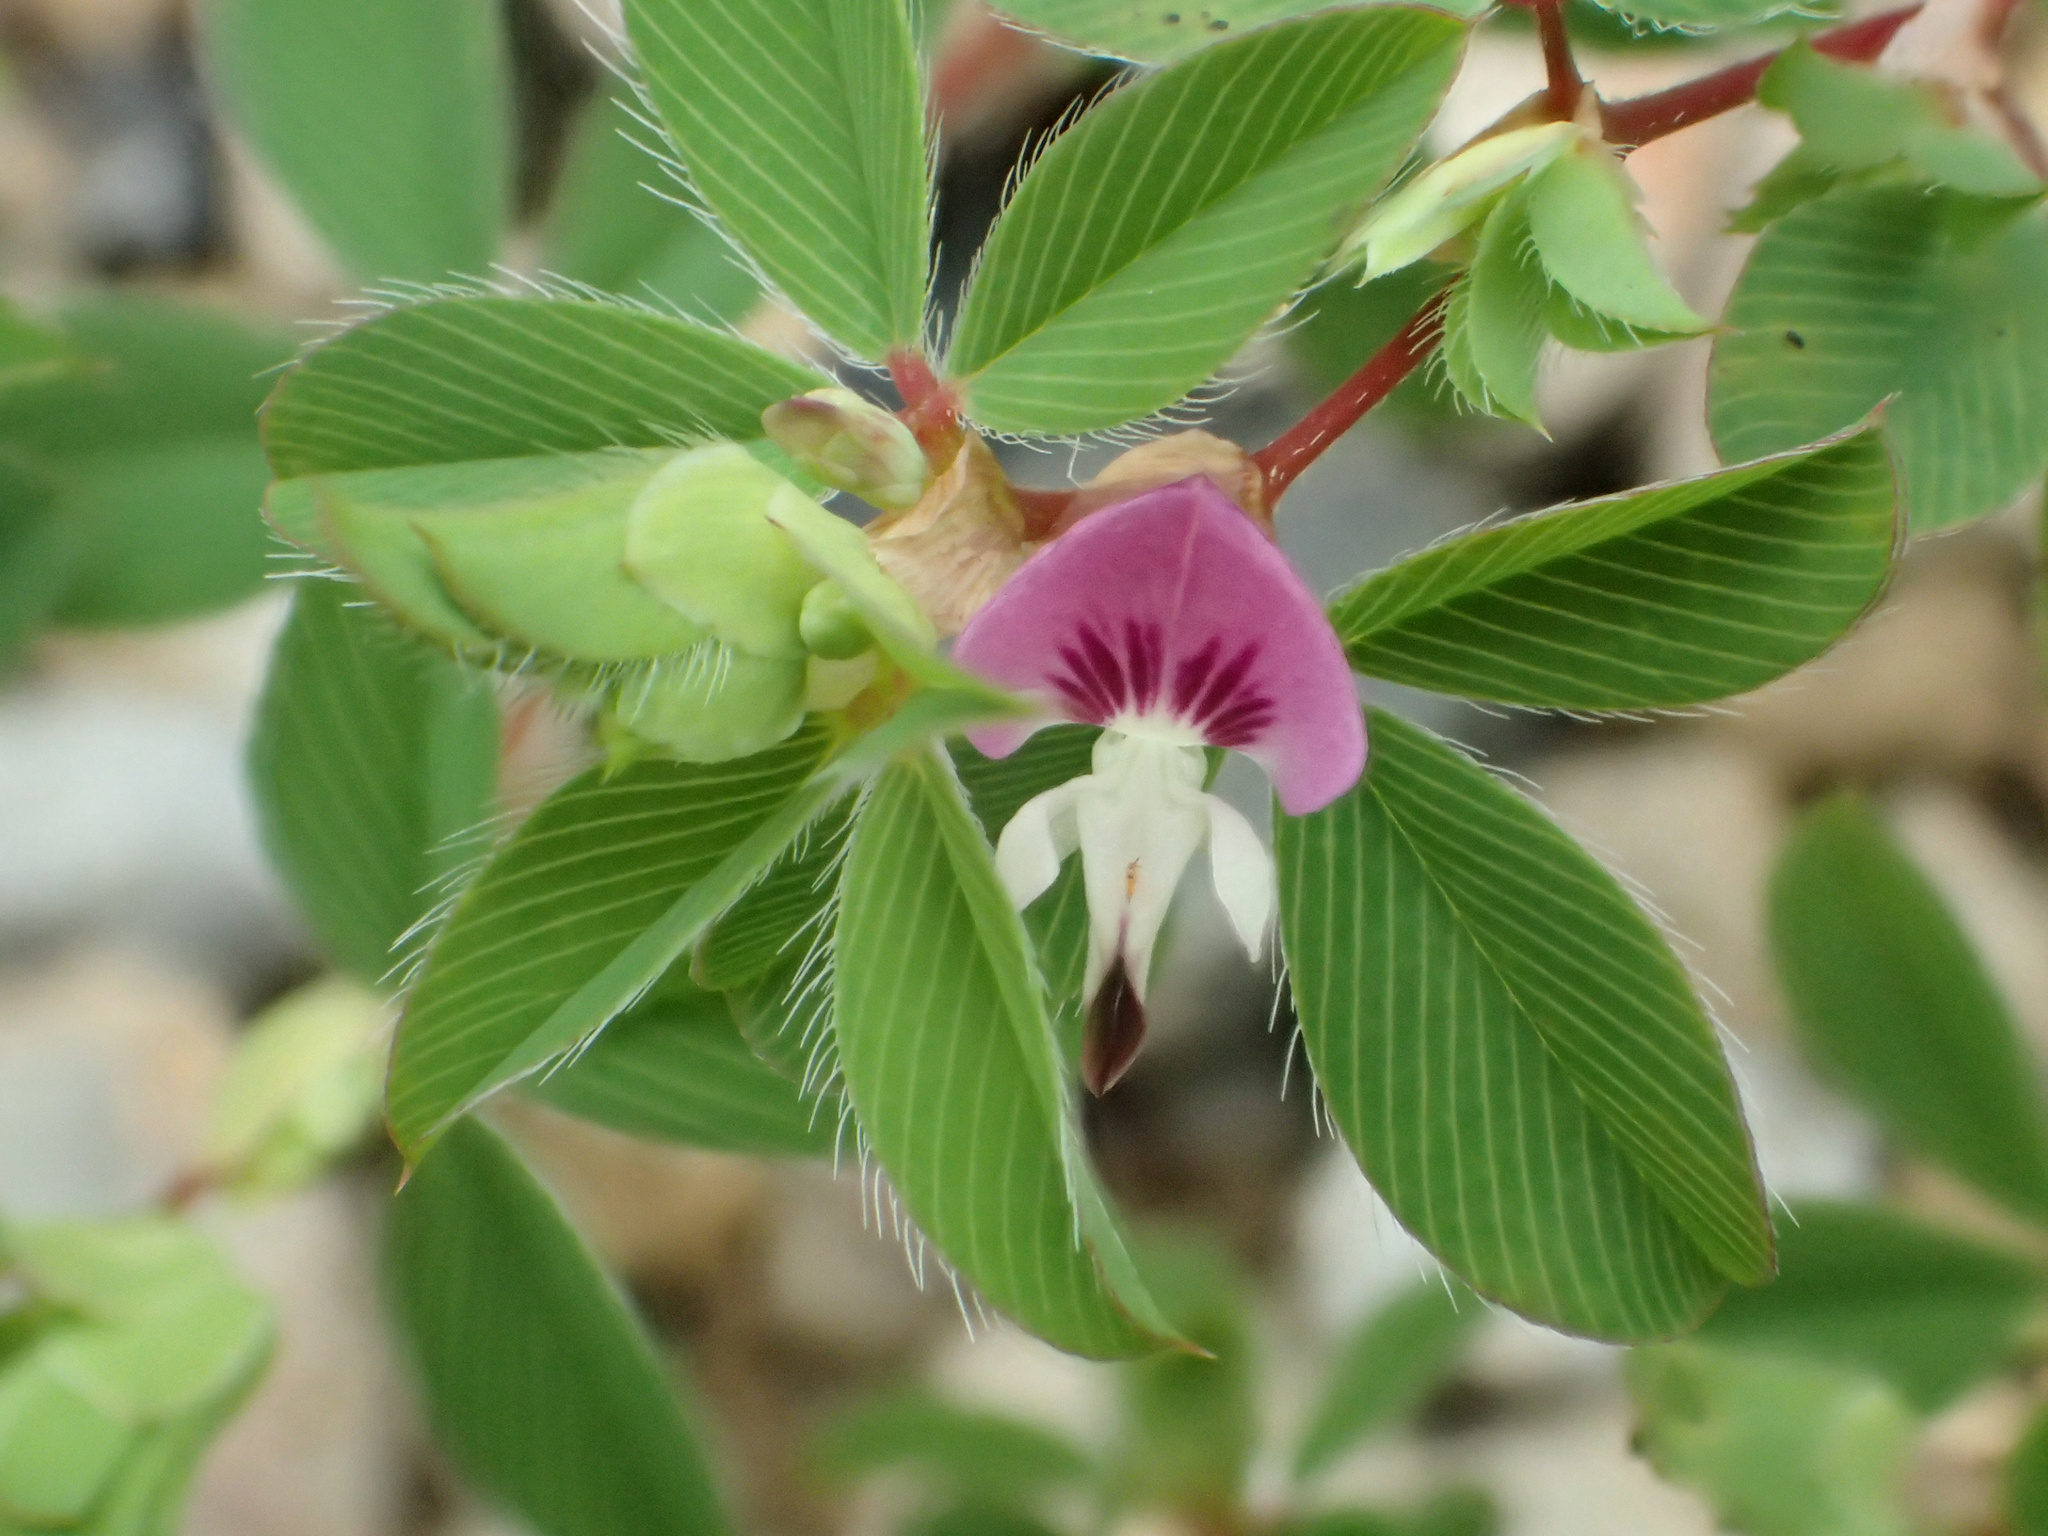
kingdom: Plantae
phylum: Tracheophyta
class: Magnoliopsida
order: Fabales
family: Fabaceae
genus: Kummerowia
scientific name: Kummerowia stipulacea
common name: Korean clover
